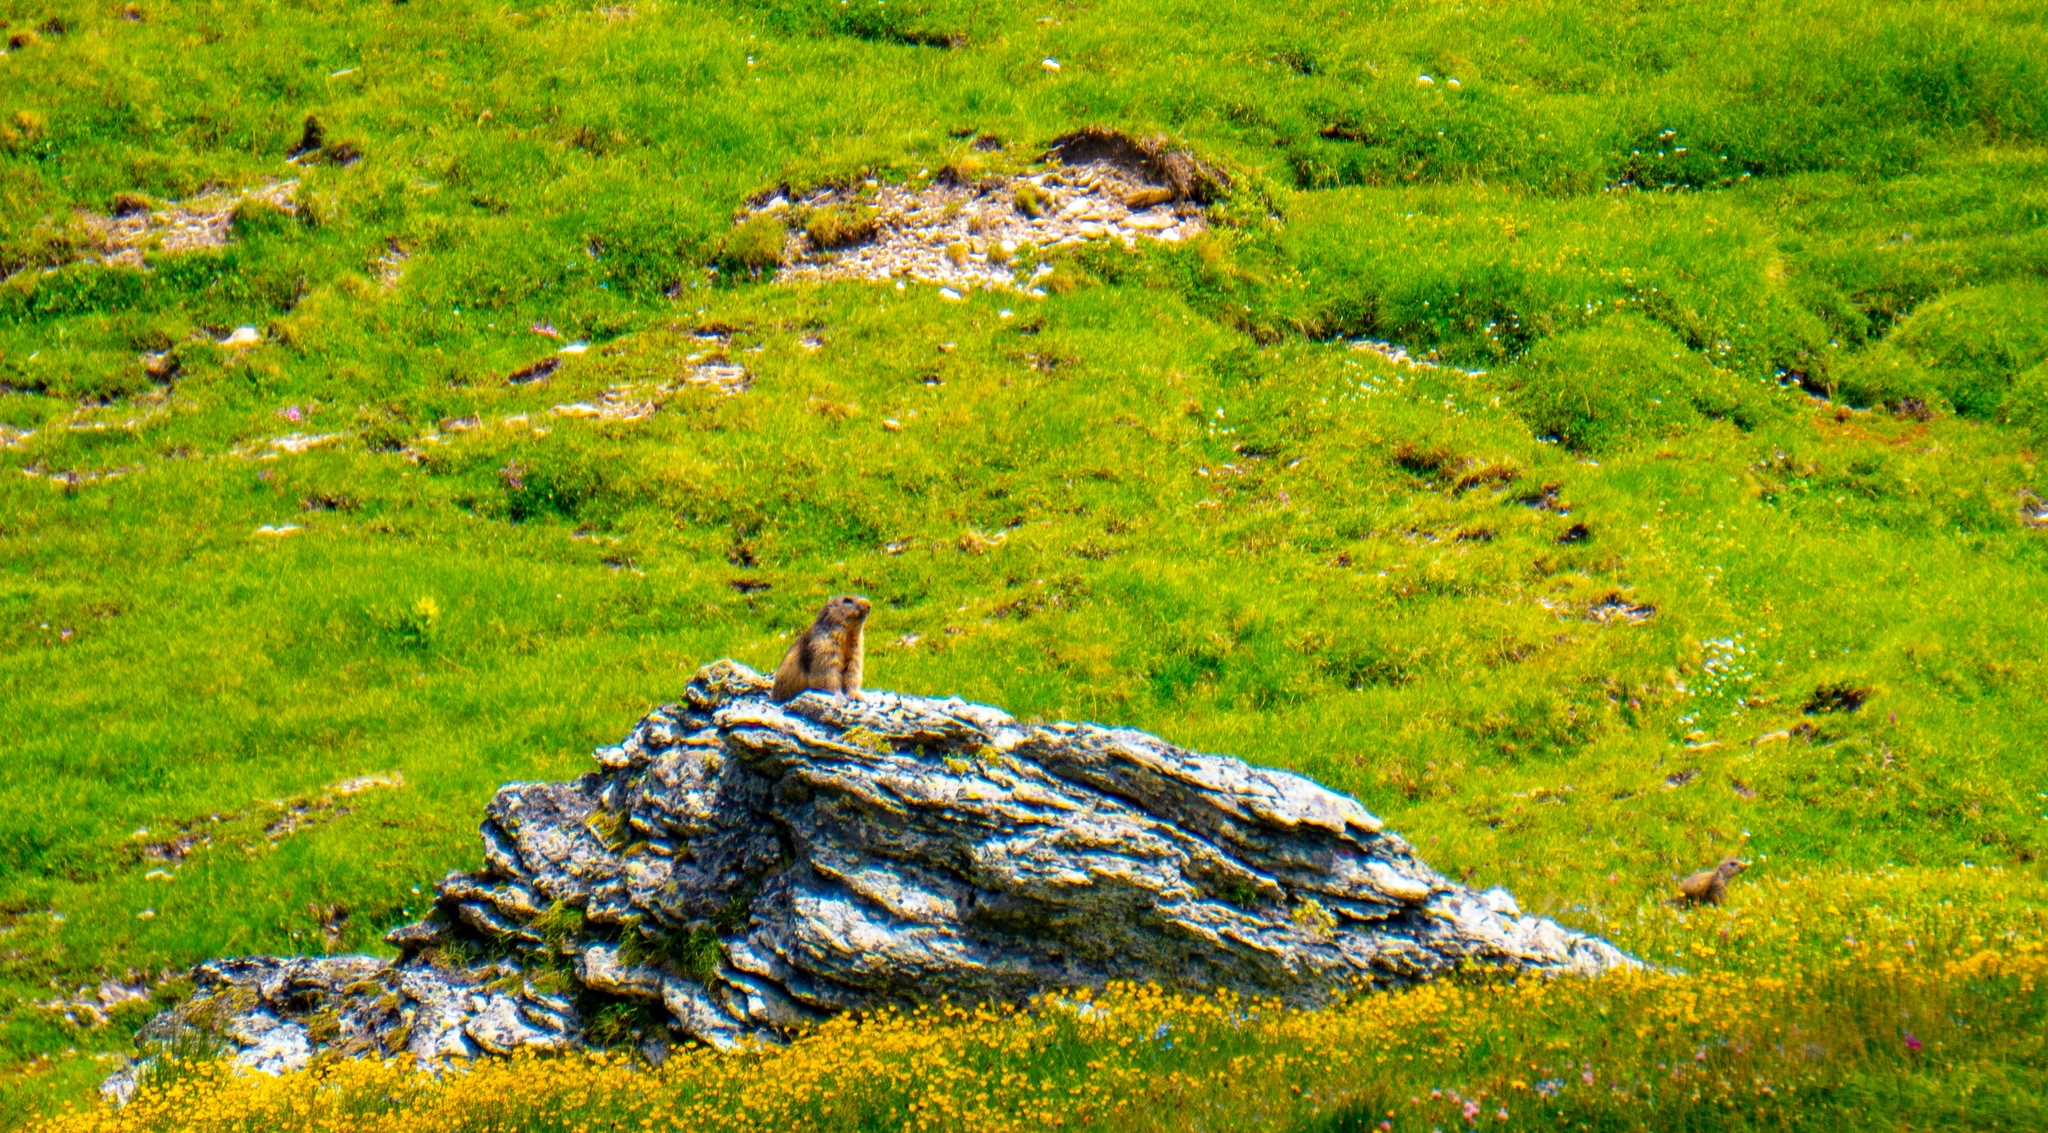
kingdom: Animalia
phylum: Chordata
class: Mammalia
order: Rodentia
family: Sciuridae
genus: Marmota
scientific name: Marmota marmota
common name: Alpine marmot
